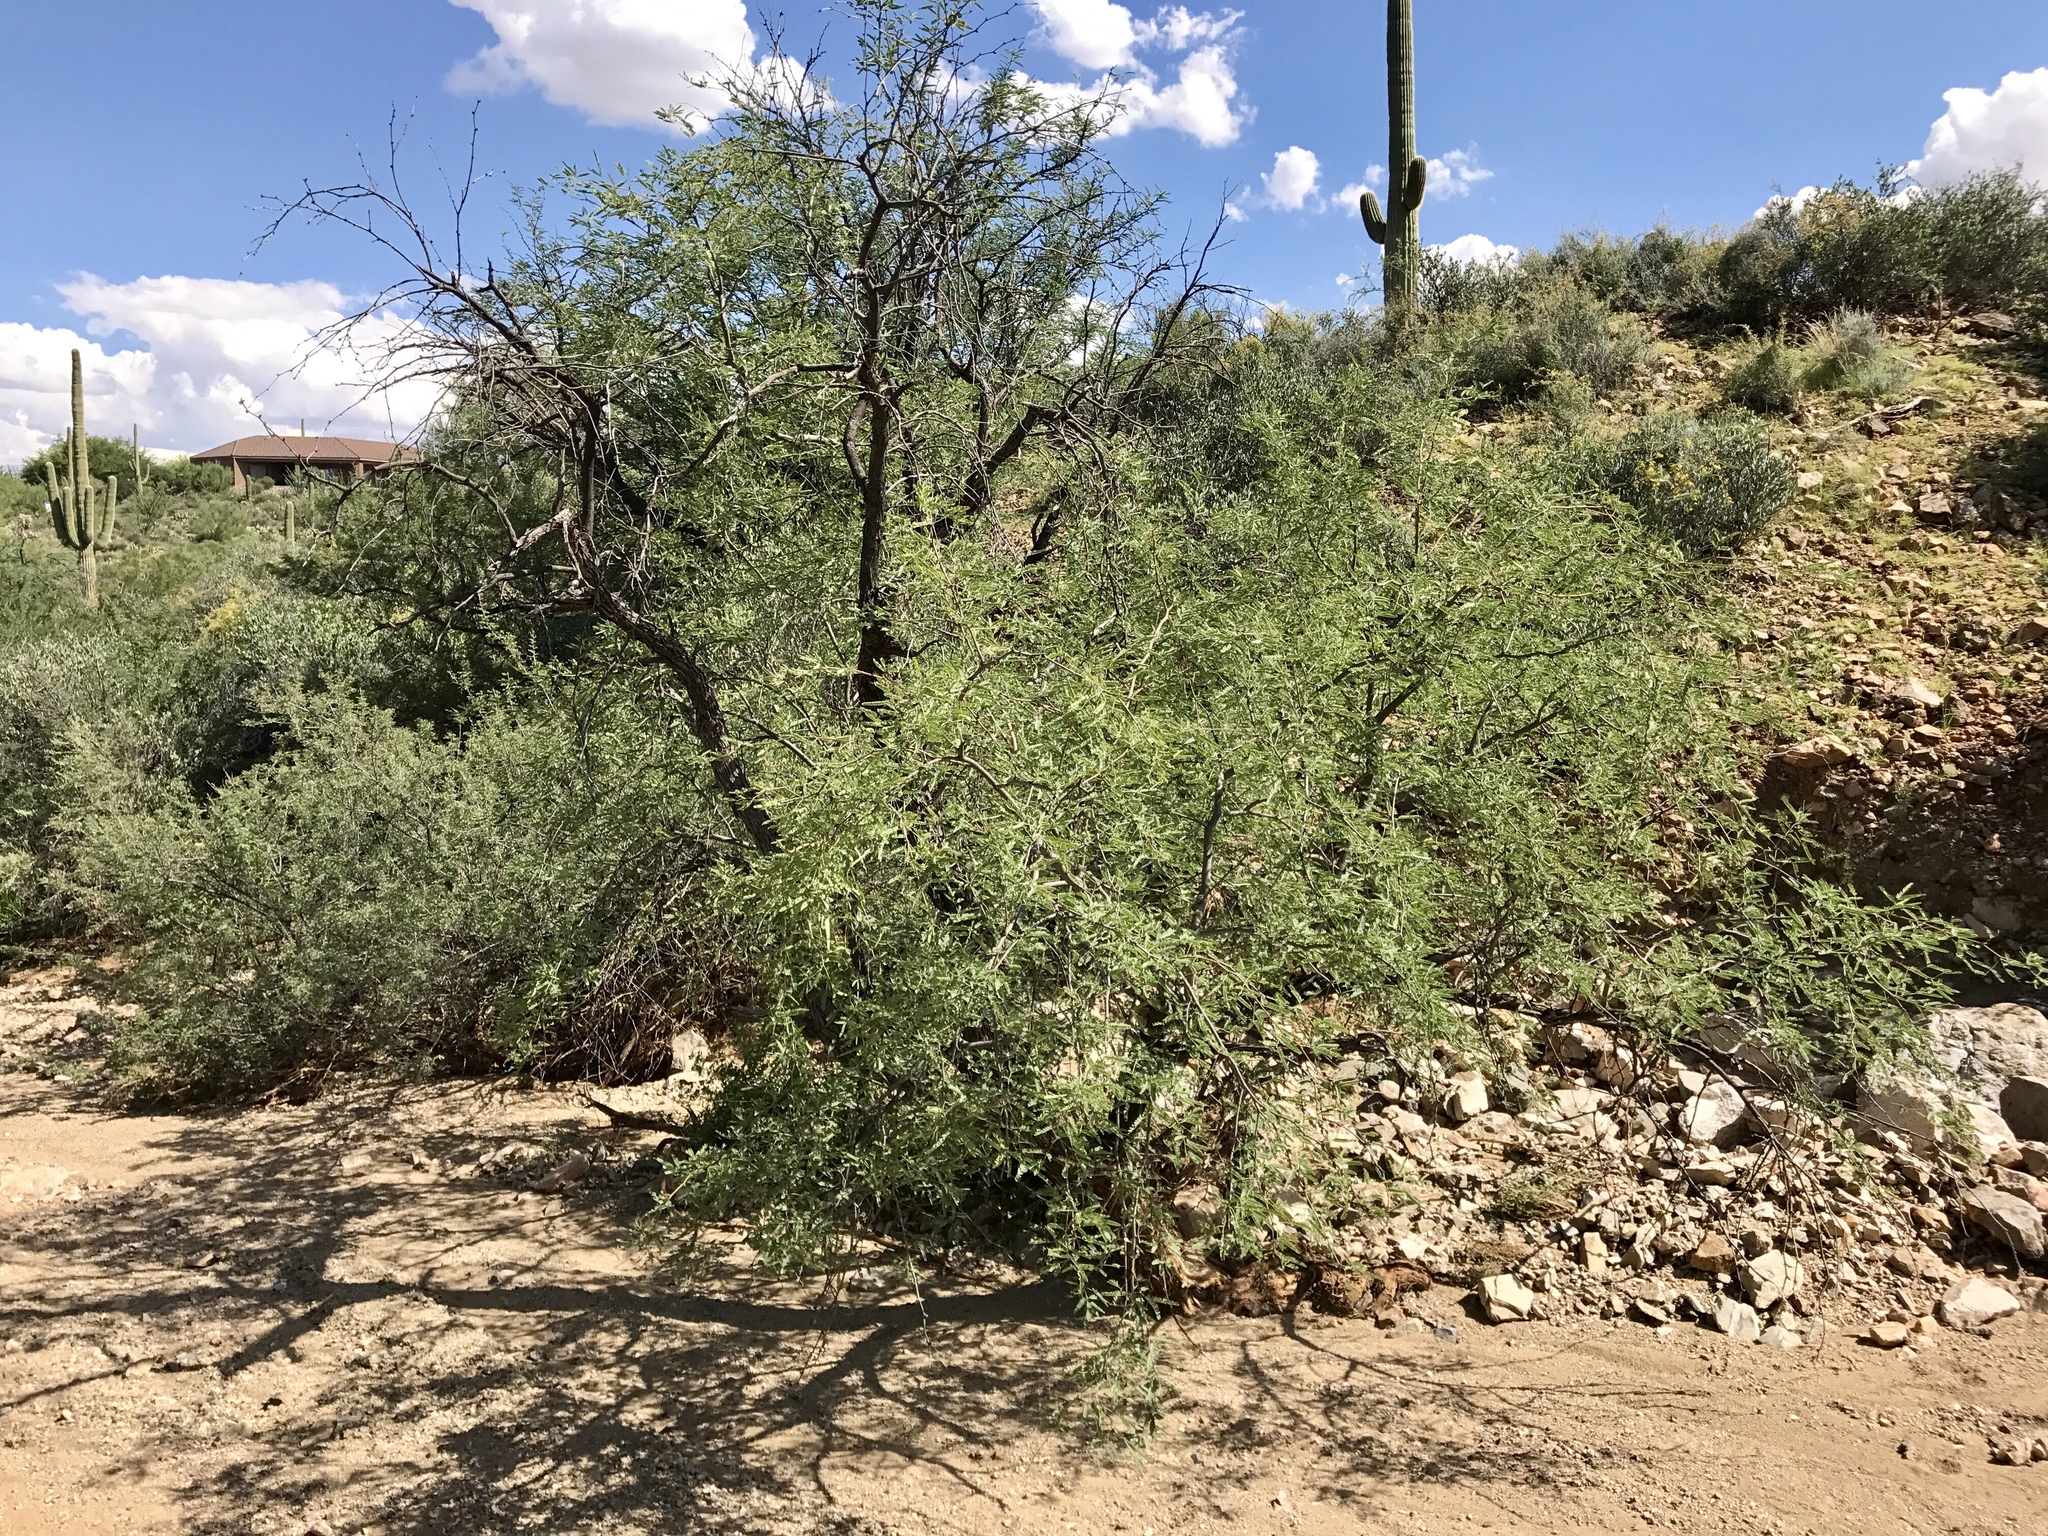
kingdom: Plantae
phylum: Tracheophyta
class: Magnoliopsida
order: Fabales
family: Fabaceae
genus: Prosopis
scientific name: Prosopis velutina
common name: Velvet mesquite
